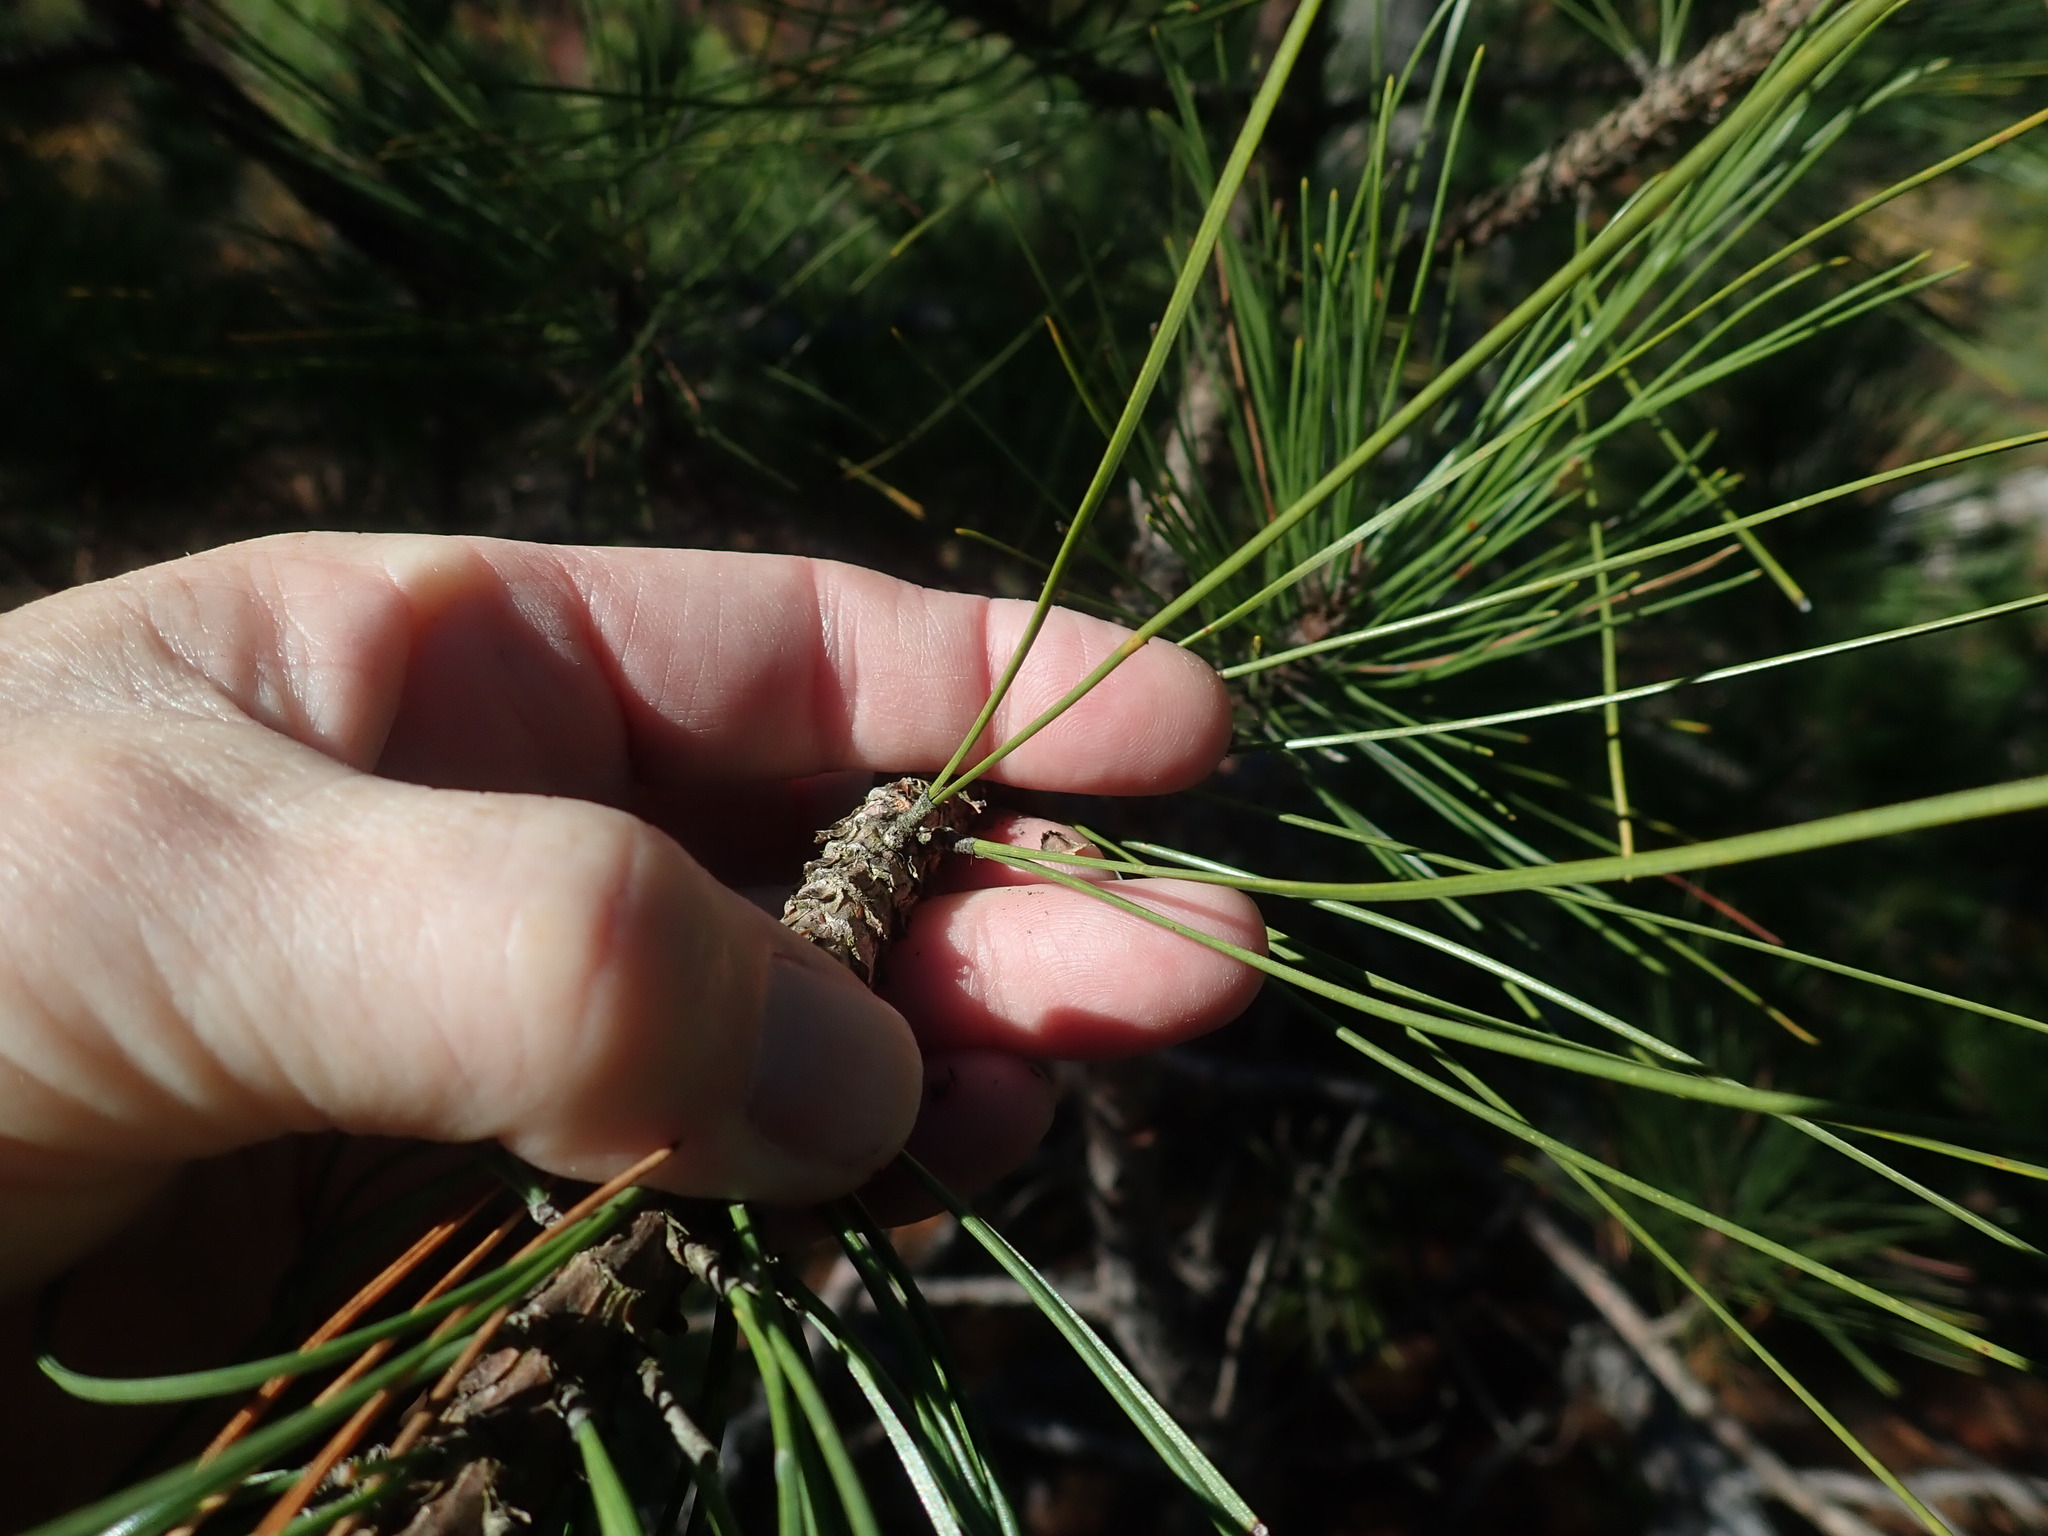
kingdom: Plantae
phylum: Tracheophyta
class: Pinopsida
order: Pinales
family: Pinaceae
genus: Pinus
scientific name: Pinus resinosa
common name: Norway pine
